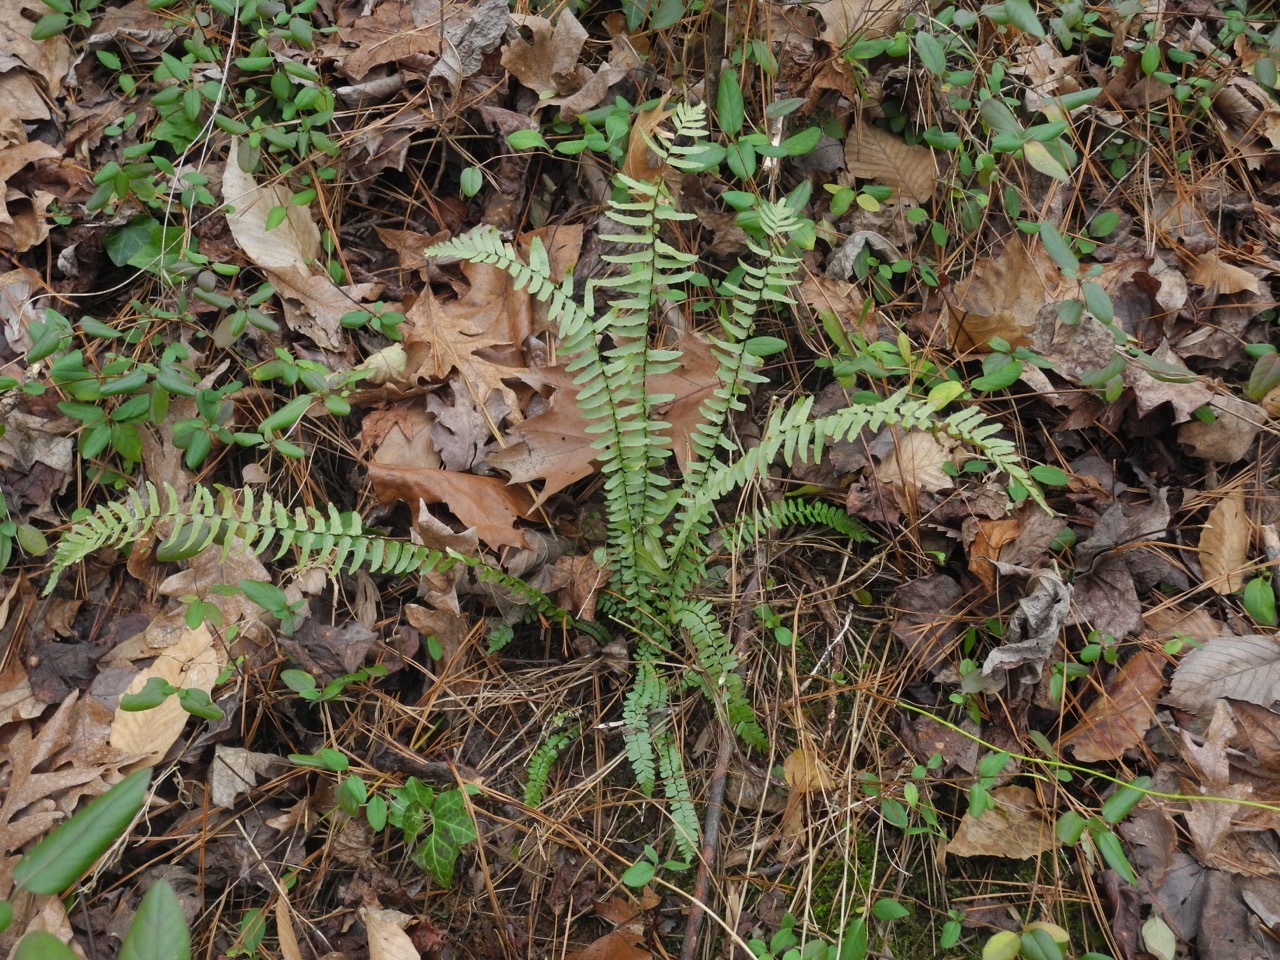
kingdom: Plantae
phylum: Tracheophyta
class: Polypodiopsida
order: Polypodiales
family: Aspleniaceae
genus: Asplenium
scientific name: Asplenium platyneuron
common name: Ebony spleenwort
